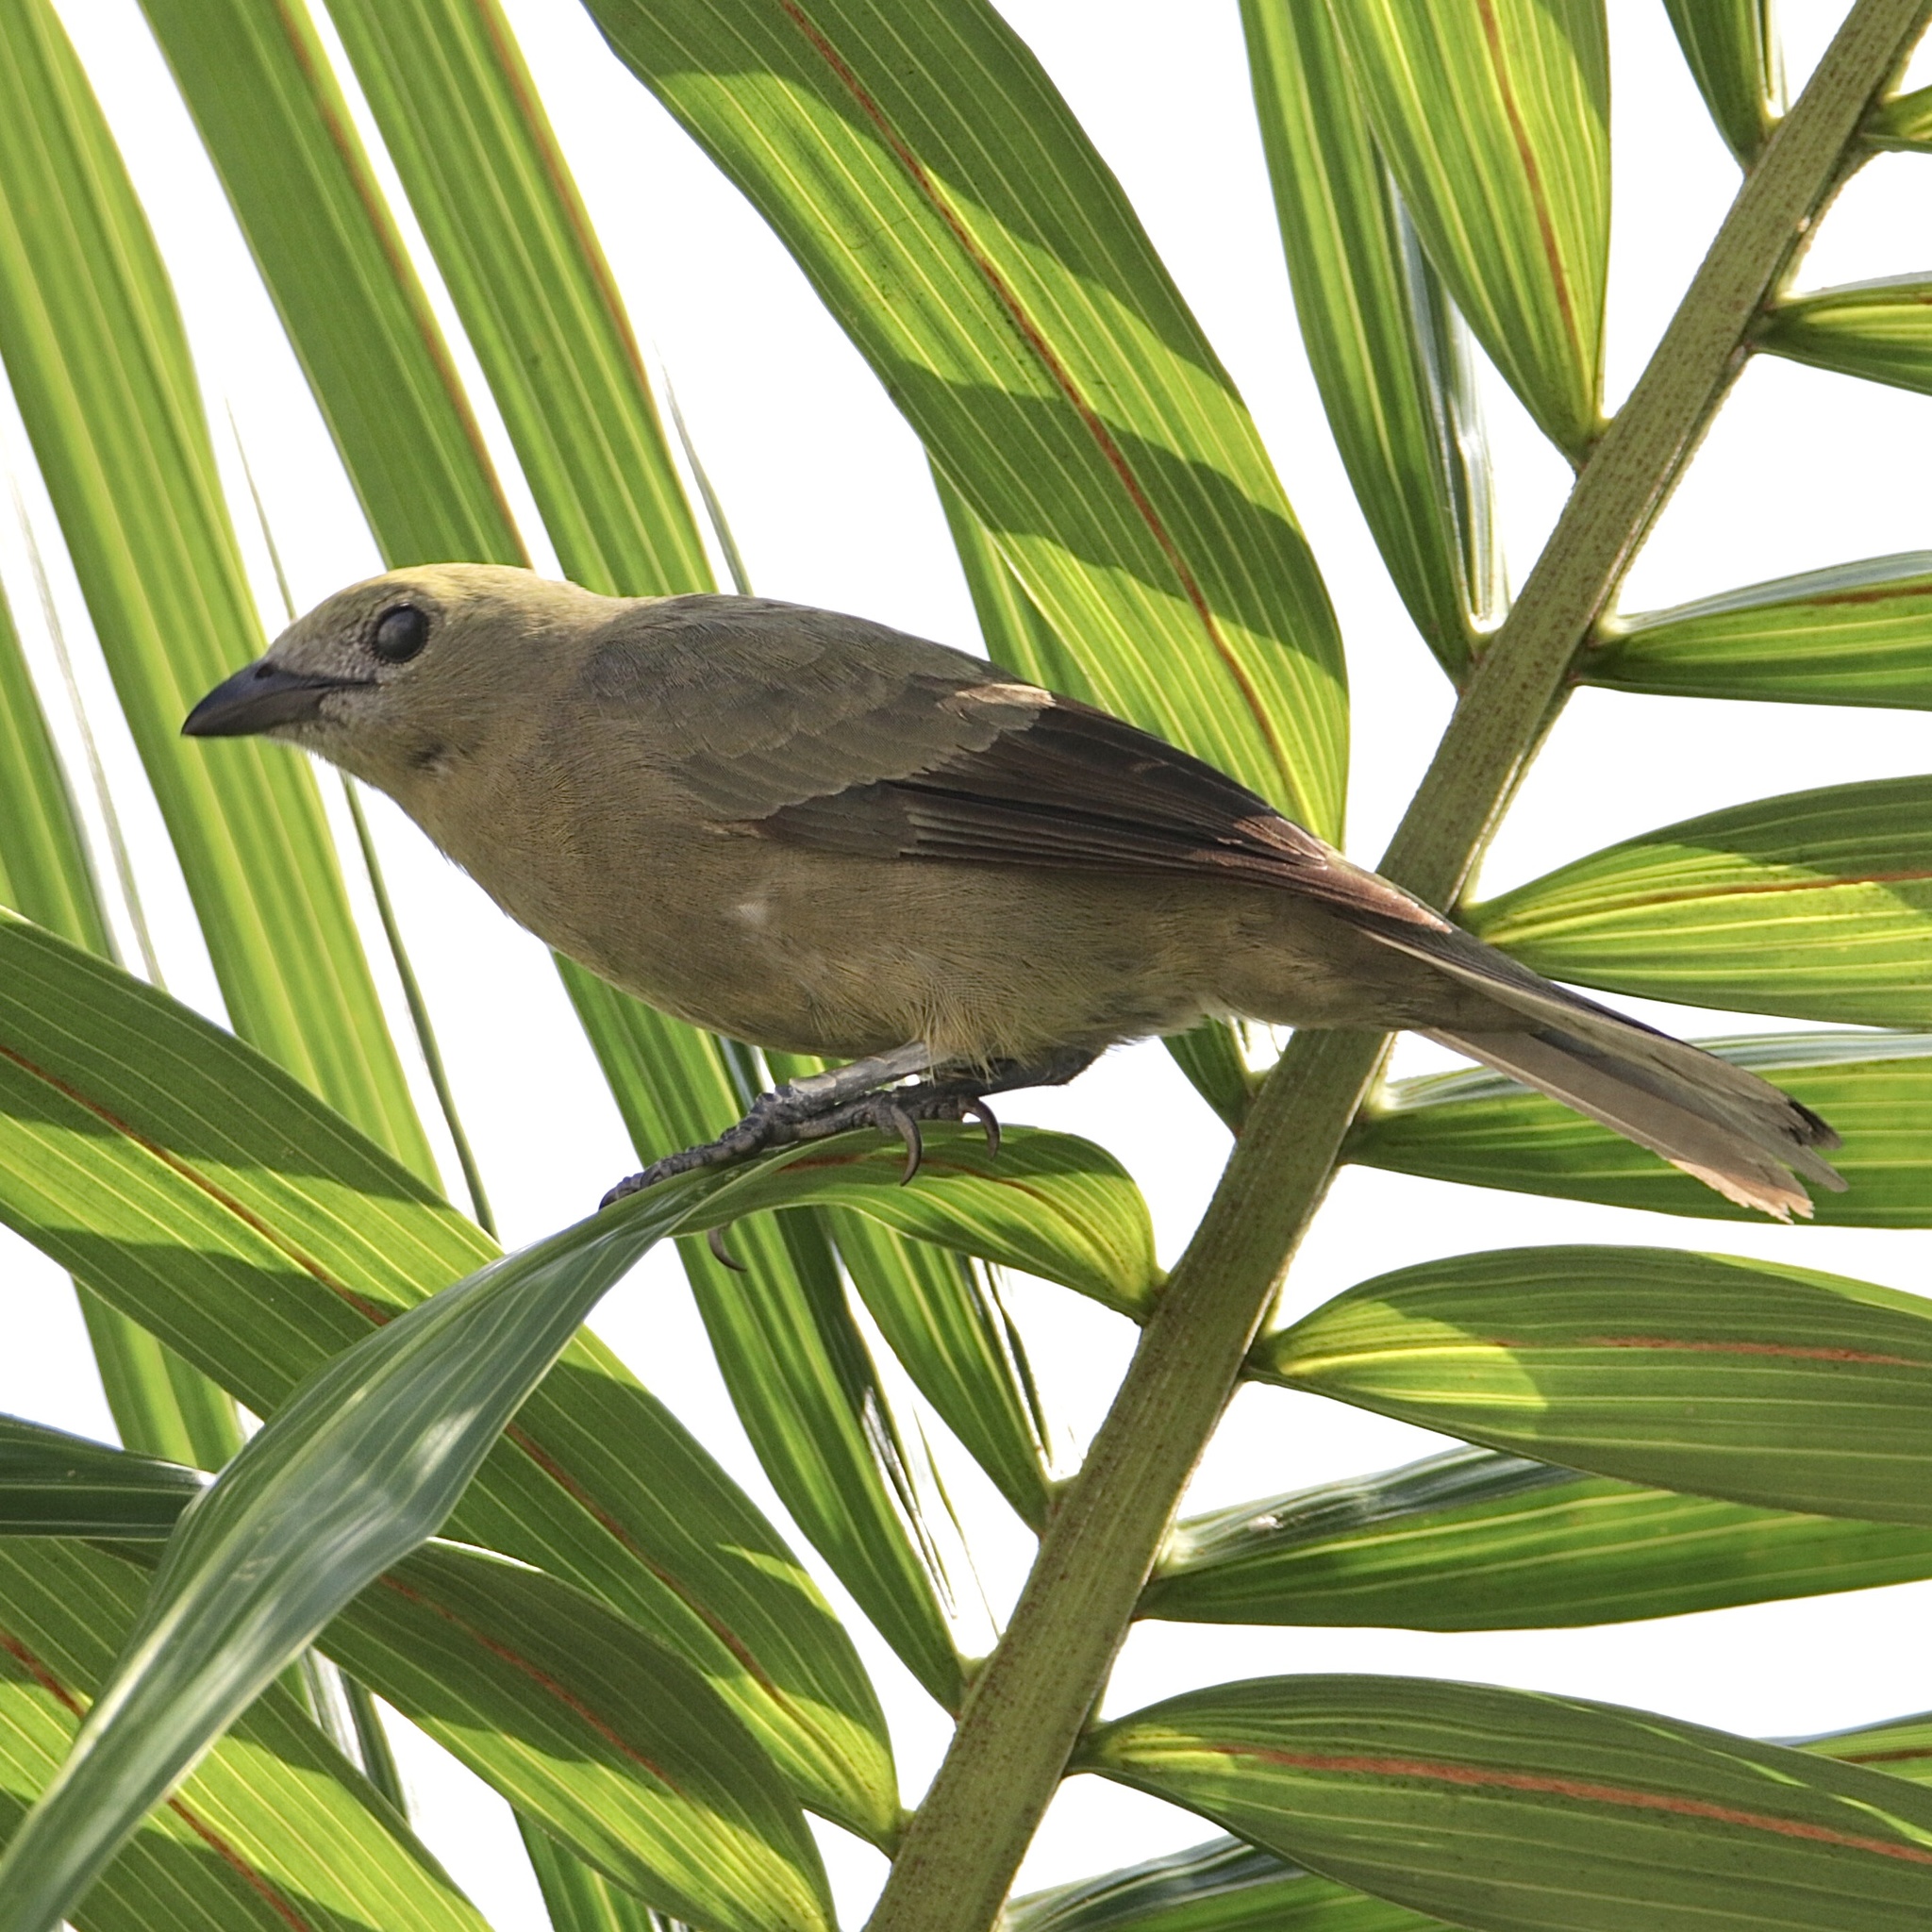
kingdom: Animalia
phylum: Chordata
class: Aves
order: Passeriformes
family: Thraupidae
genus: Thraupis
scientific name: Thraupis palmarum
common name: Palm tanager
